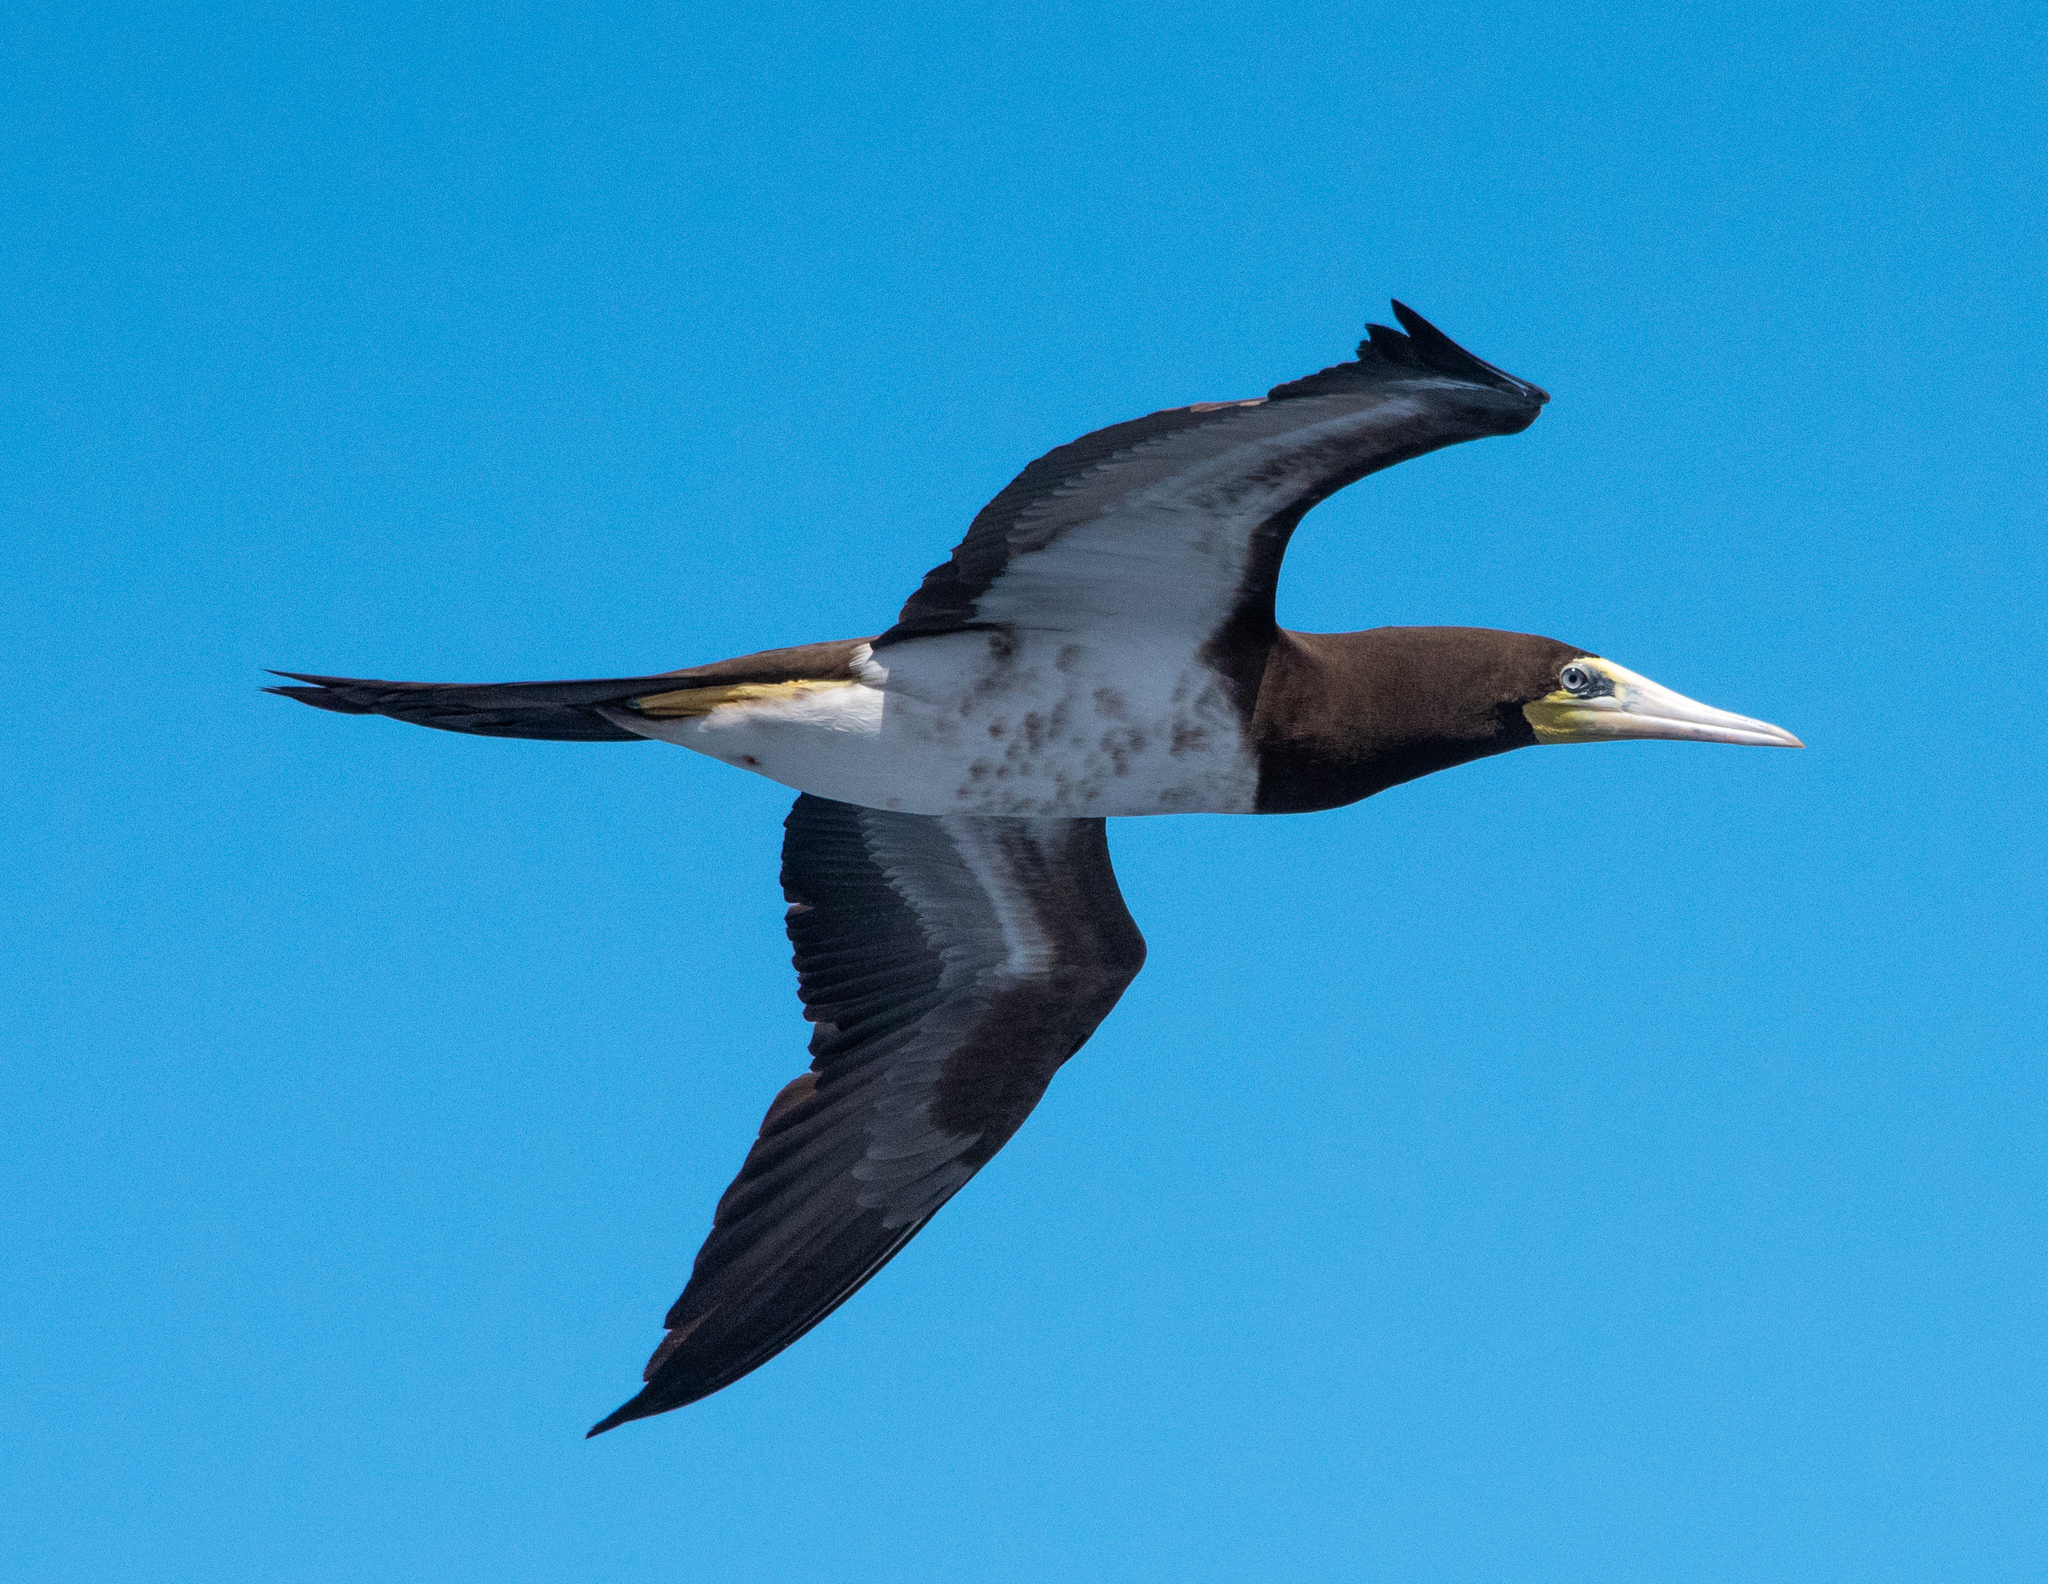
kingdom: Animalia
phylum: Chordata
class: Aves
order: Suliformes
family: Sulidae
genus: Sula
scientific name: Sula leucogaster
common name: Brown booby
